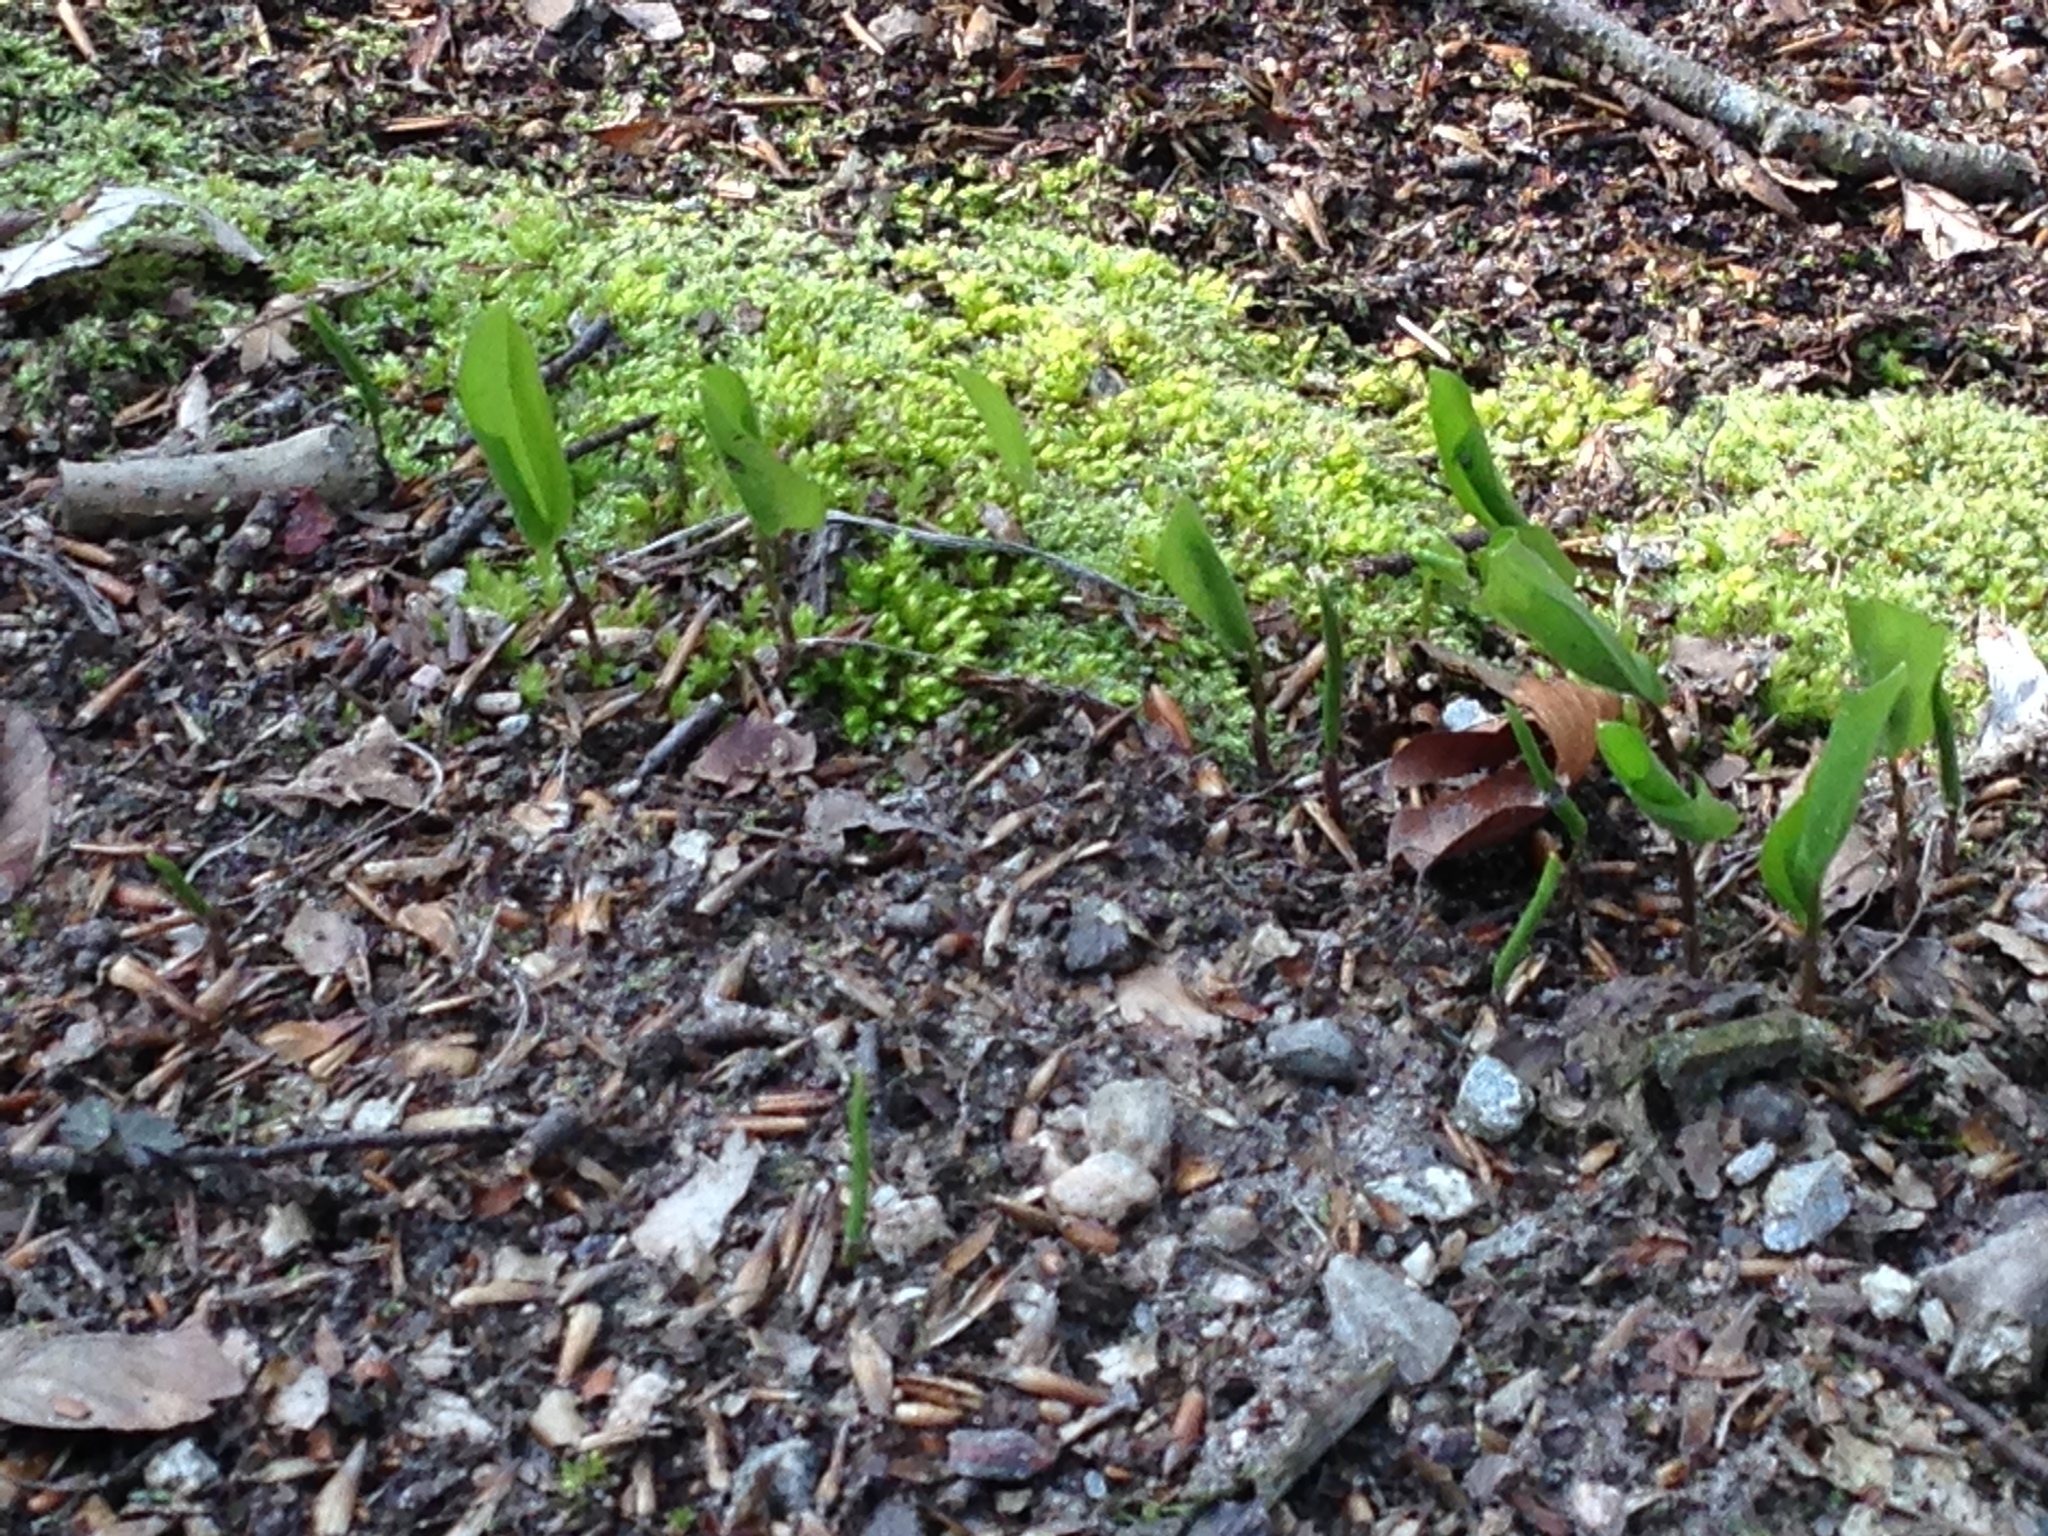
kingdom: Plantae
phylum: Tracheophyta
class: Liliopsida
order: Asparagales
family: Asparagaceae
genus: Convallaria
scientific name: Convallaria majalis
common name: Lily-of-the-valley
